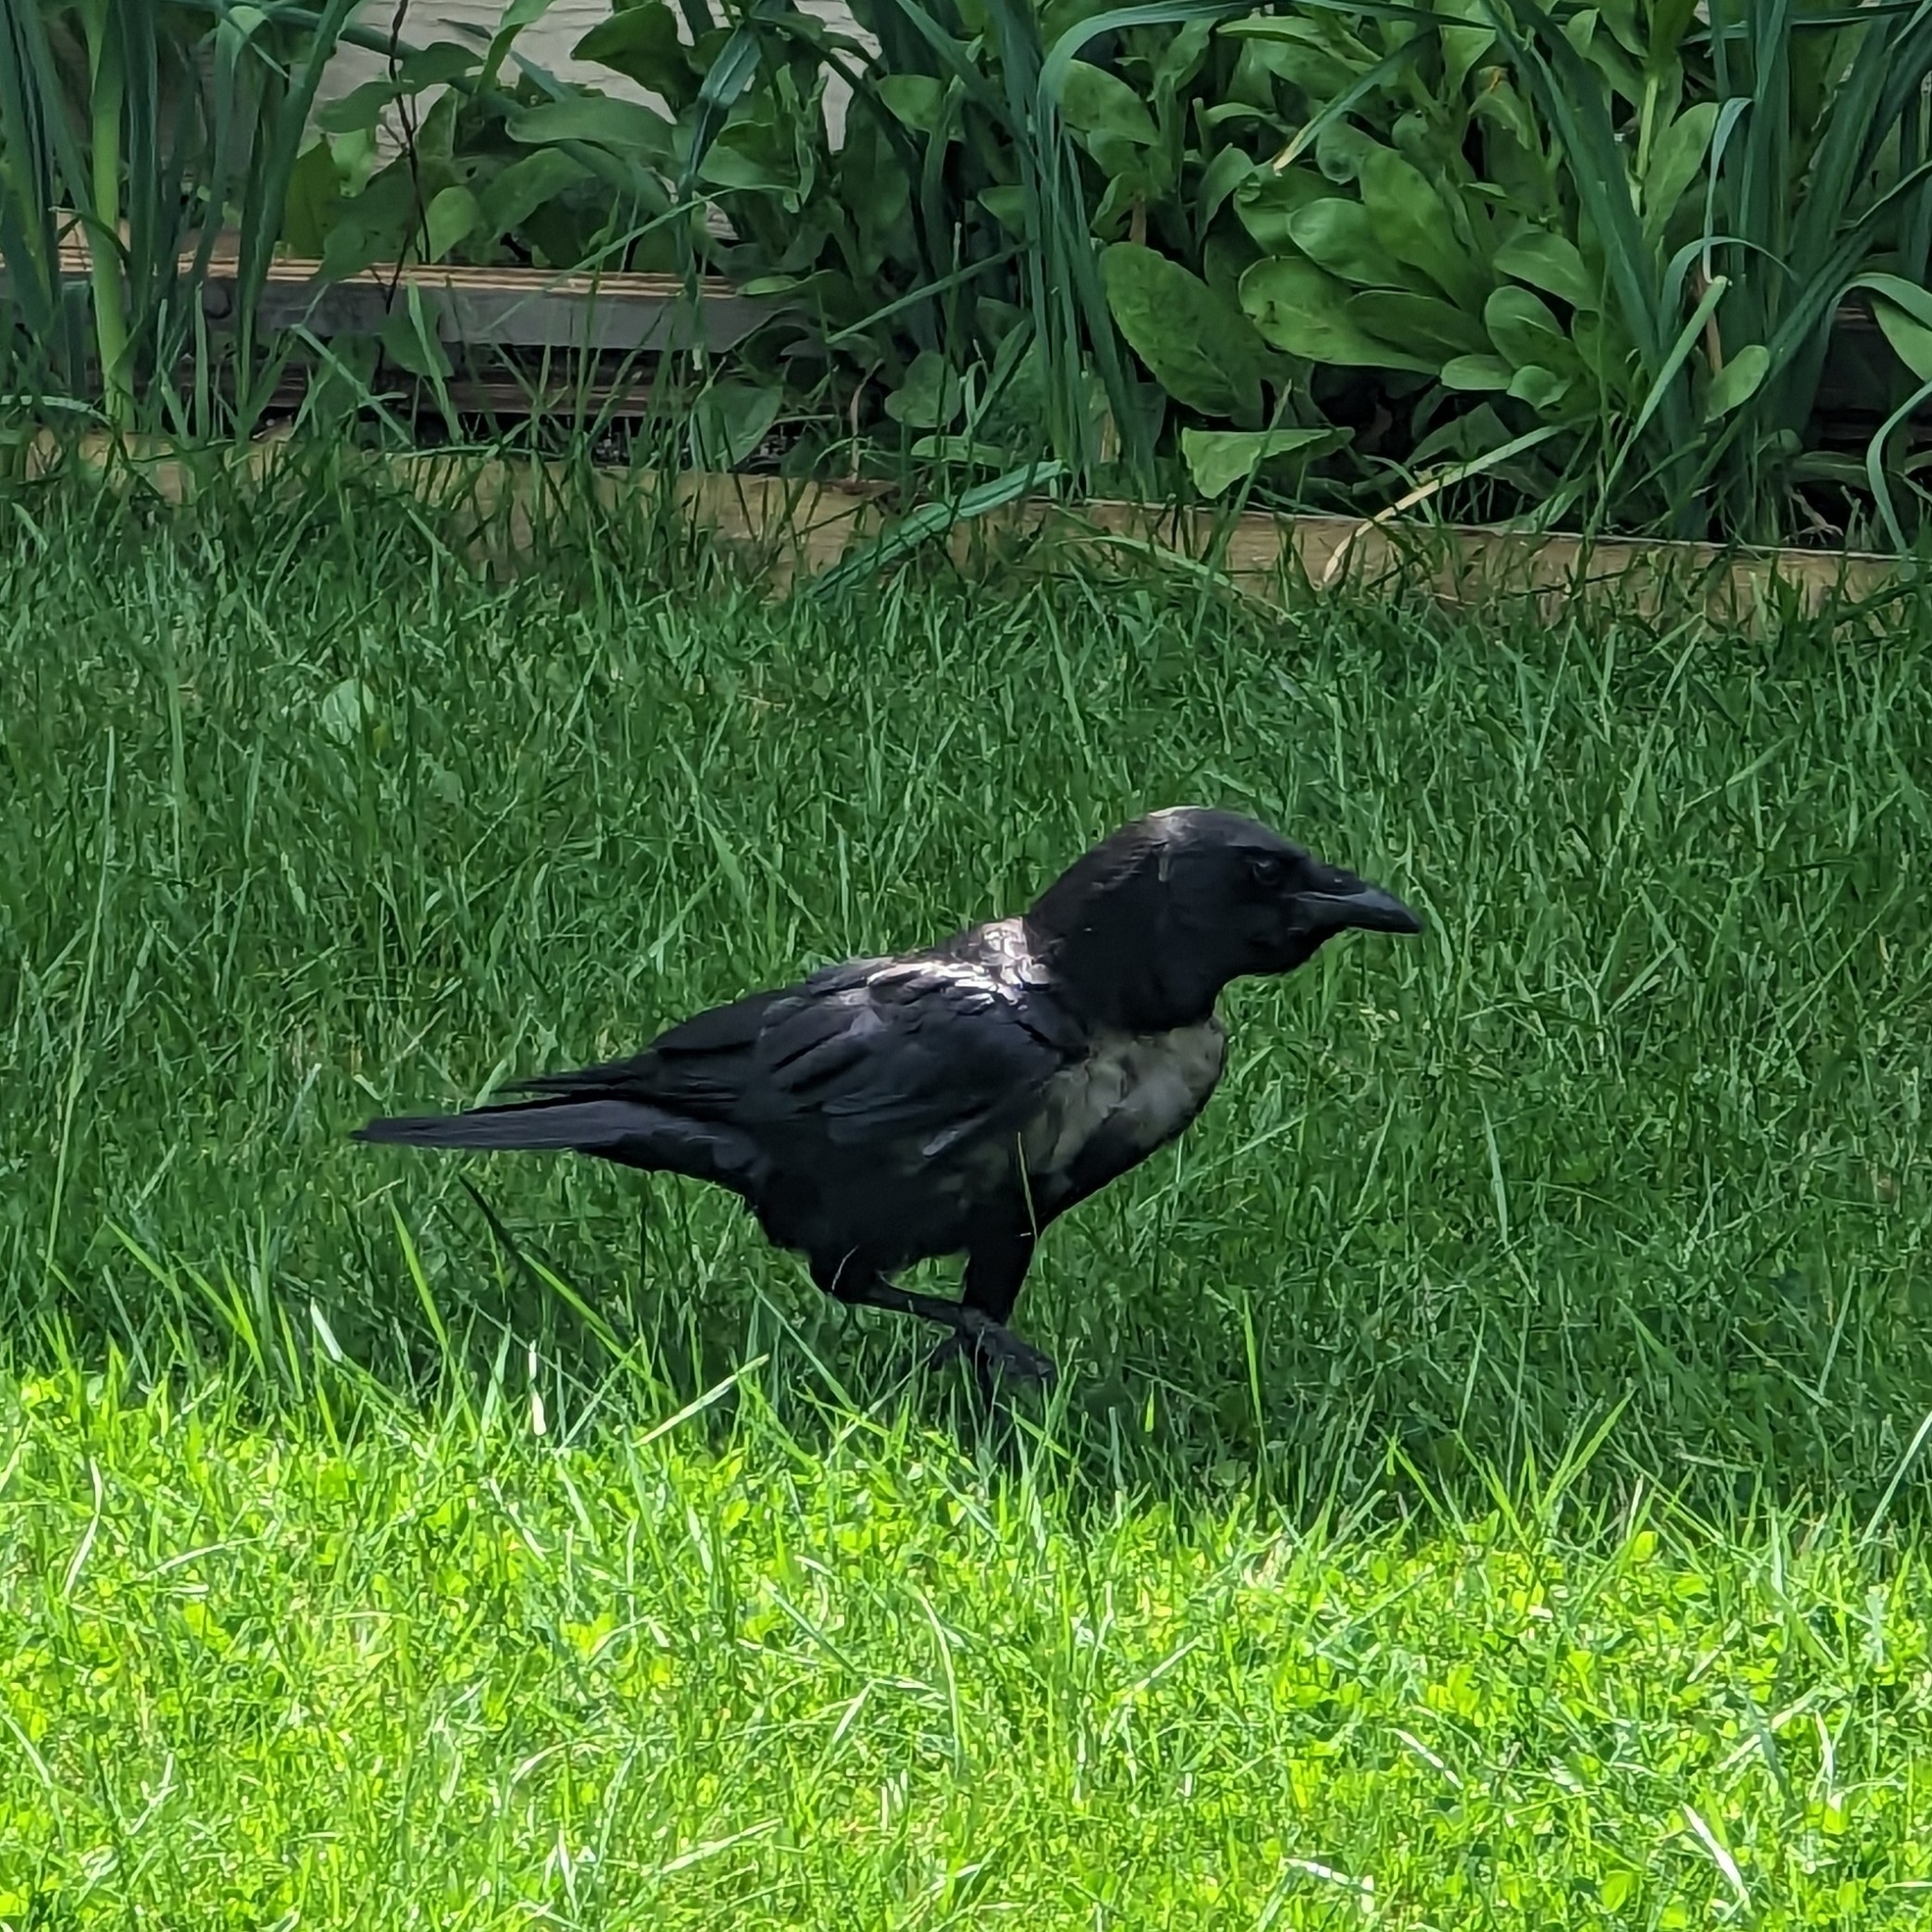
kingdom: Animalia
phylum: Chordata
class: Aves
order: Passeriformes
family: Corvidae
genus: Corvus
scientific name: Corvus brachyrhynchos
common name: American crow
